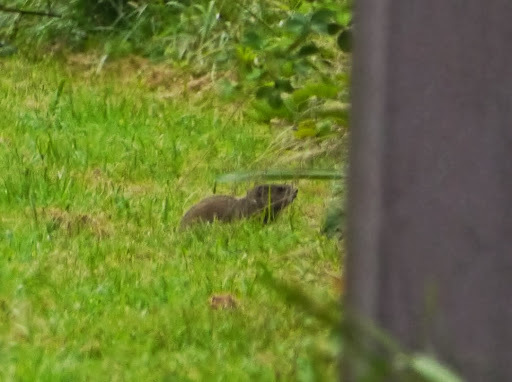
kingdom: Animalia
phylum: Chordata
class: Mammalia
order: Rodentia
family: Sciuridae
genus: Marmota
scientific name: Marmota monax
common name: Groundhog
